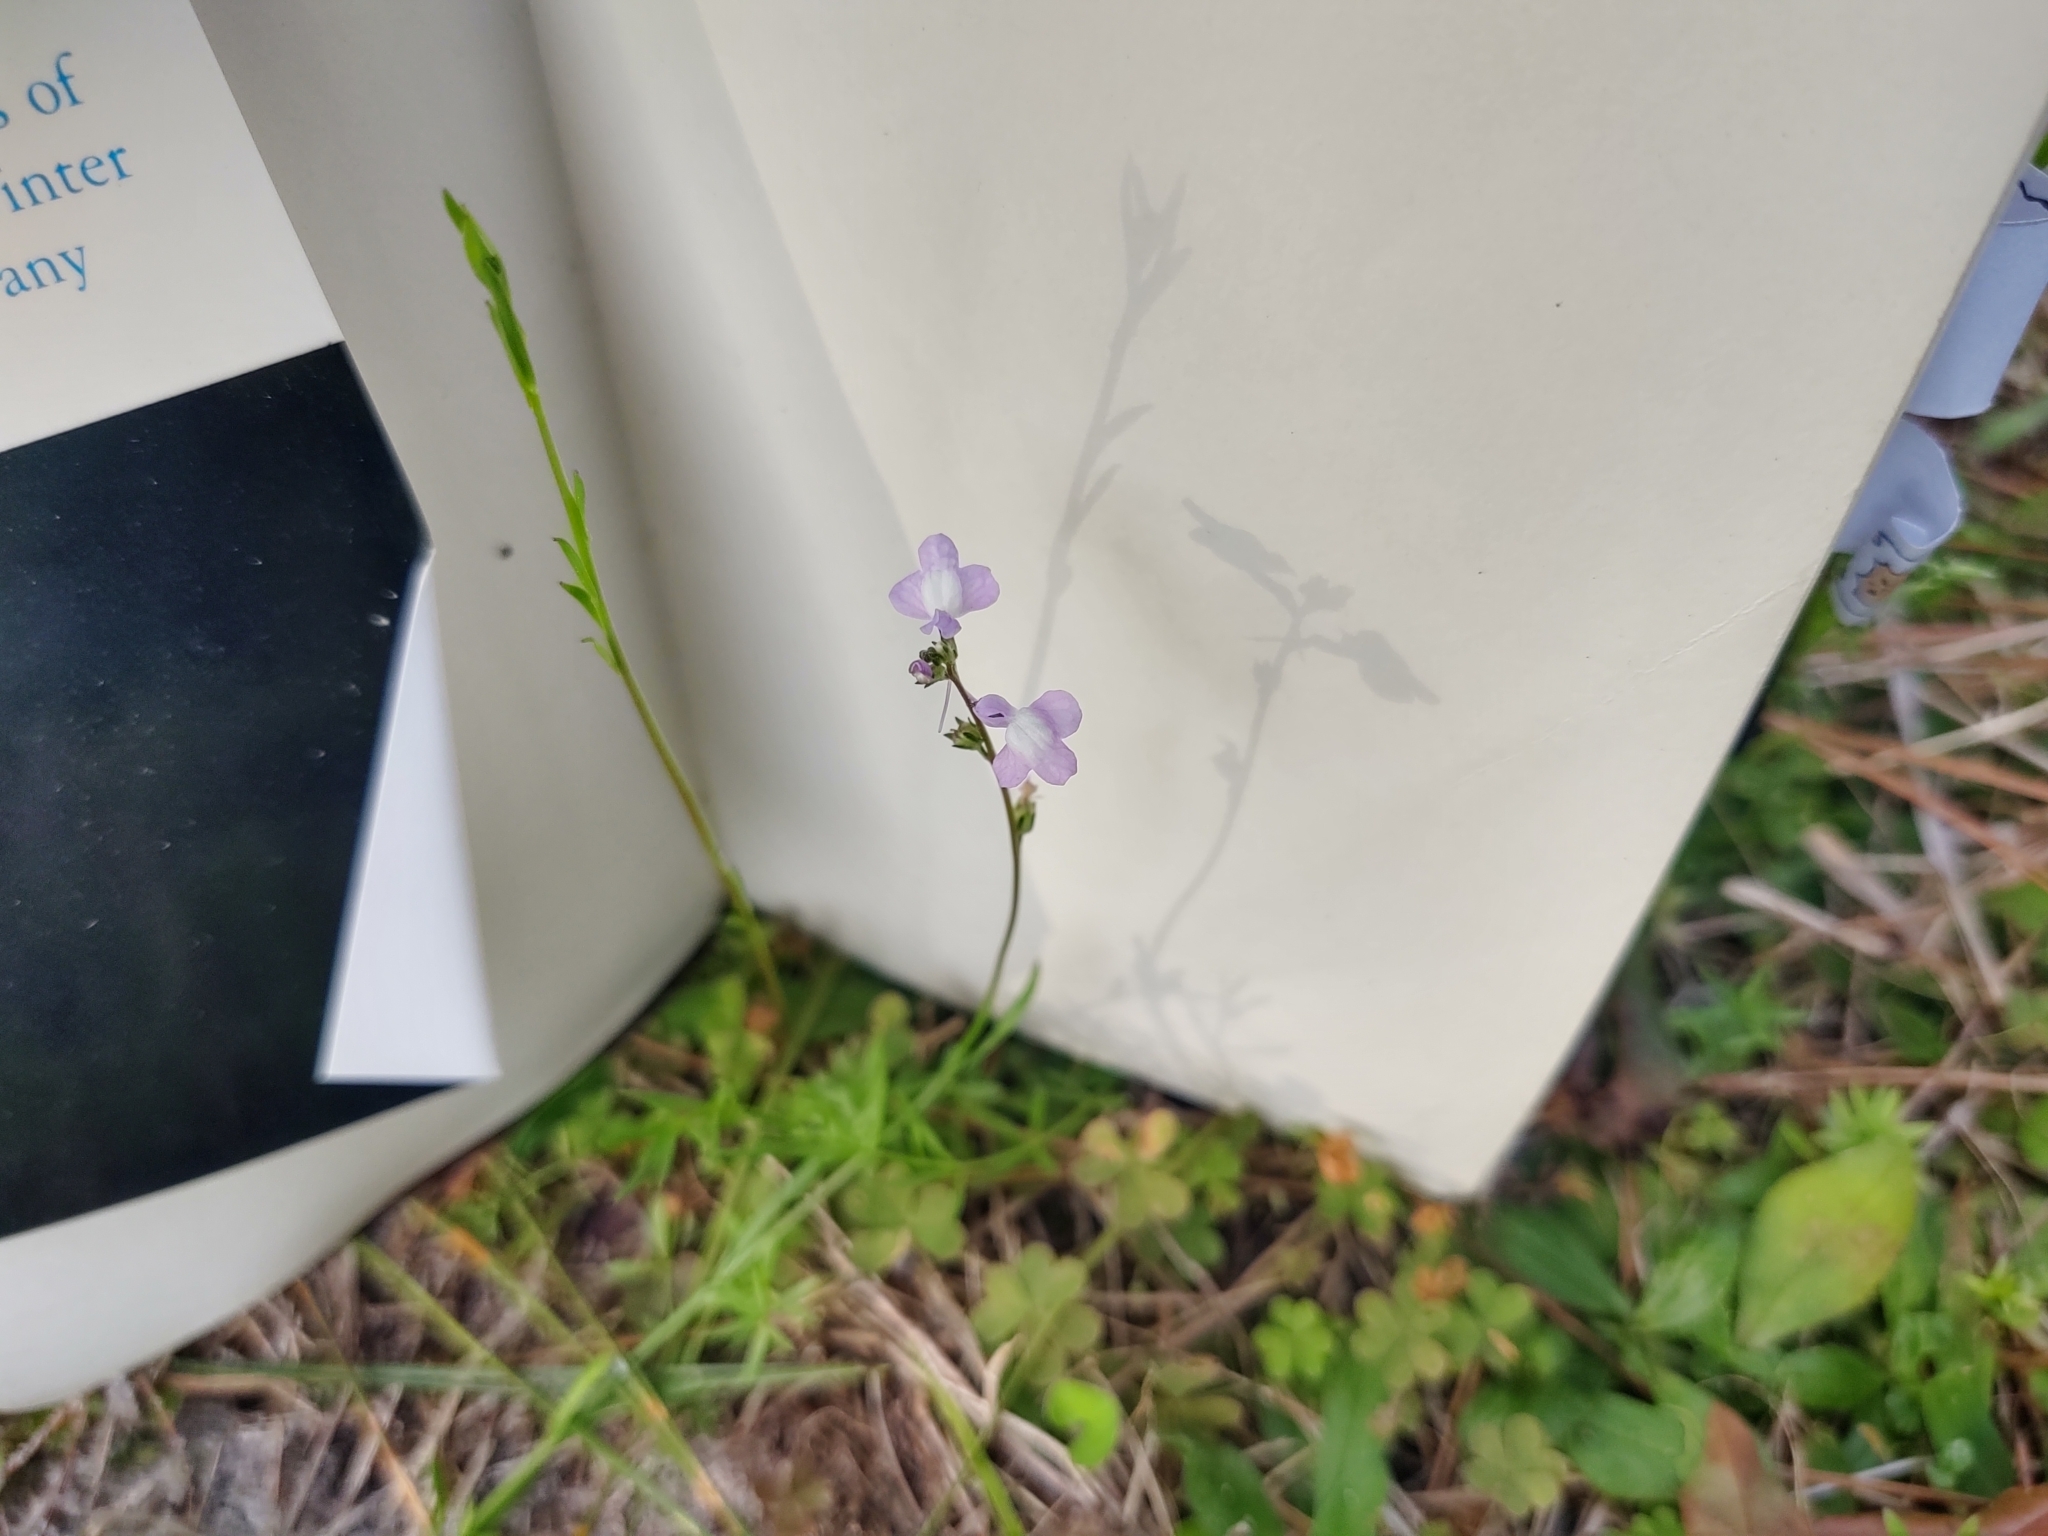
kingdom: Plantae
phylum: Tracheophyta
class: Magnoliopsida
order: Lamiales
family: Plantaginaceae
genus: Nuttallanthus
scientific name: Nuttallanthus canadensis
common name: Blue toadflax
